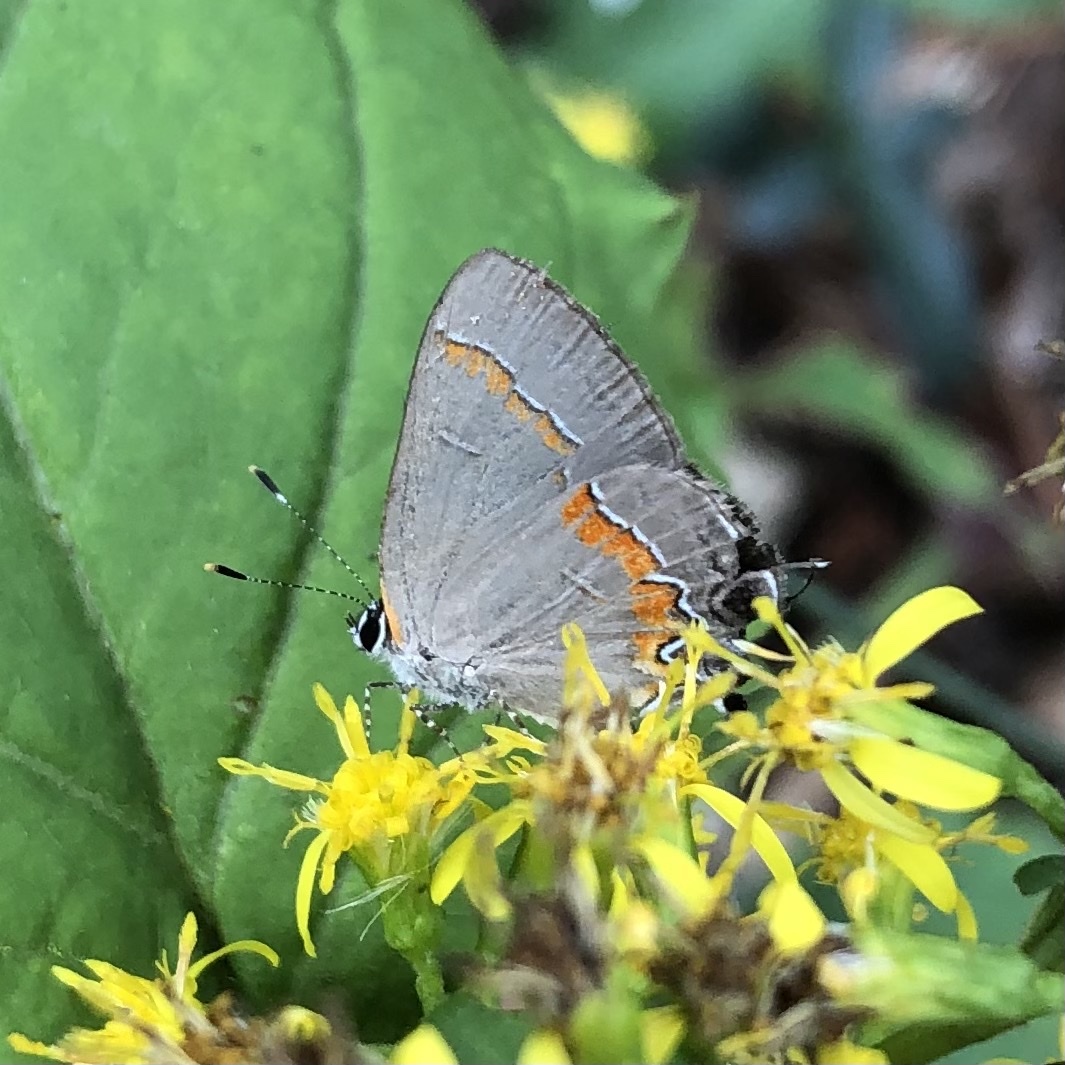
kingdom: Animalia
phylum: Arthropoda
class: Insecta
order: Lepidoptera
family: Lycaenidae
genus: Calycopis
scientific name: Calycopis cecrops
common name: Red-banded hairstreak
